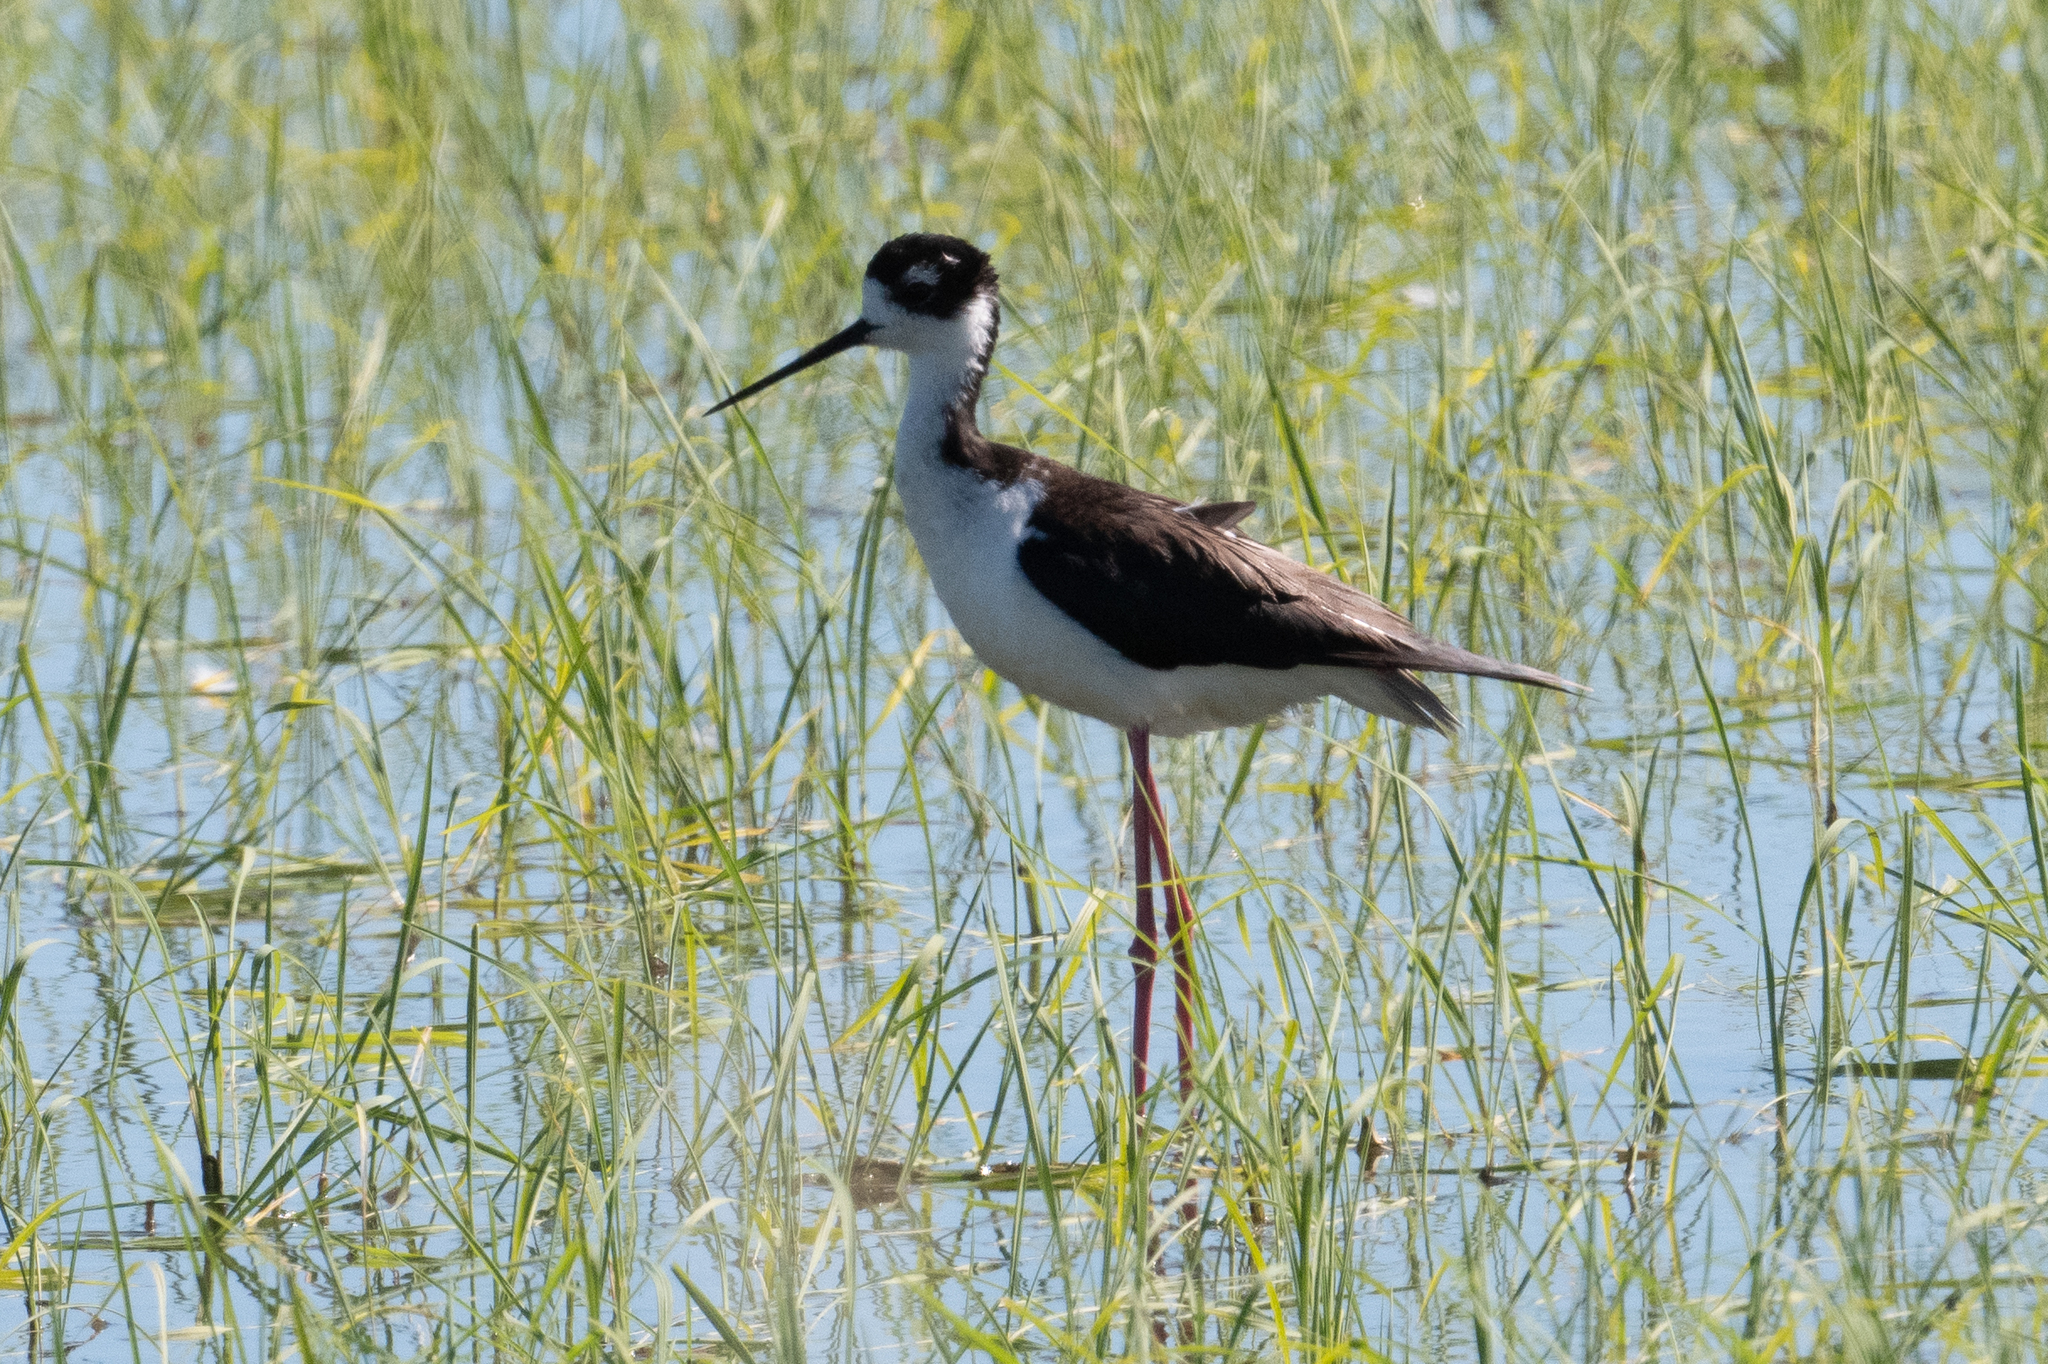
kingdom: Animalia
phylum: Chordata
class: Aves
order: Charadriiformes
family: Recurvirostridae
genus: Himantopus
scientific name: Himantopus mexicanus
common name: Black-necked stilt
